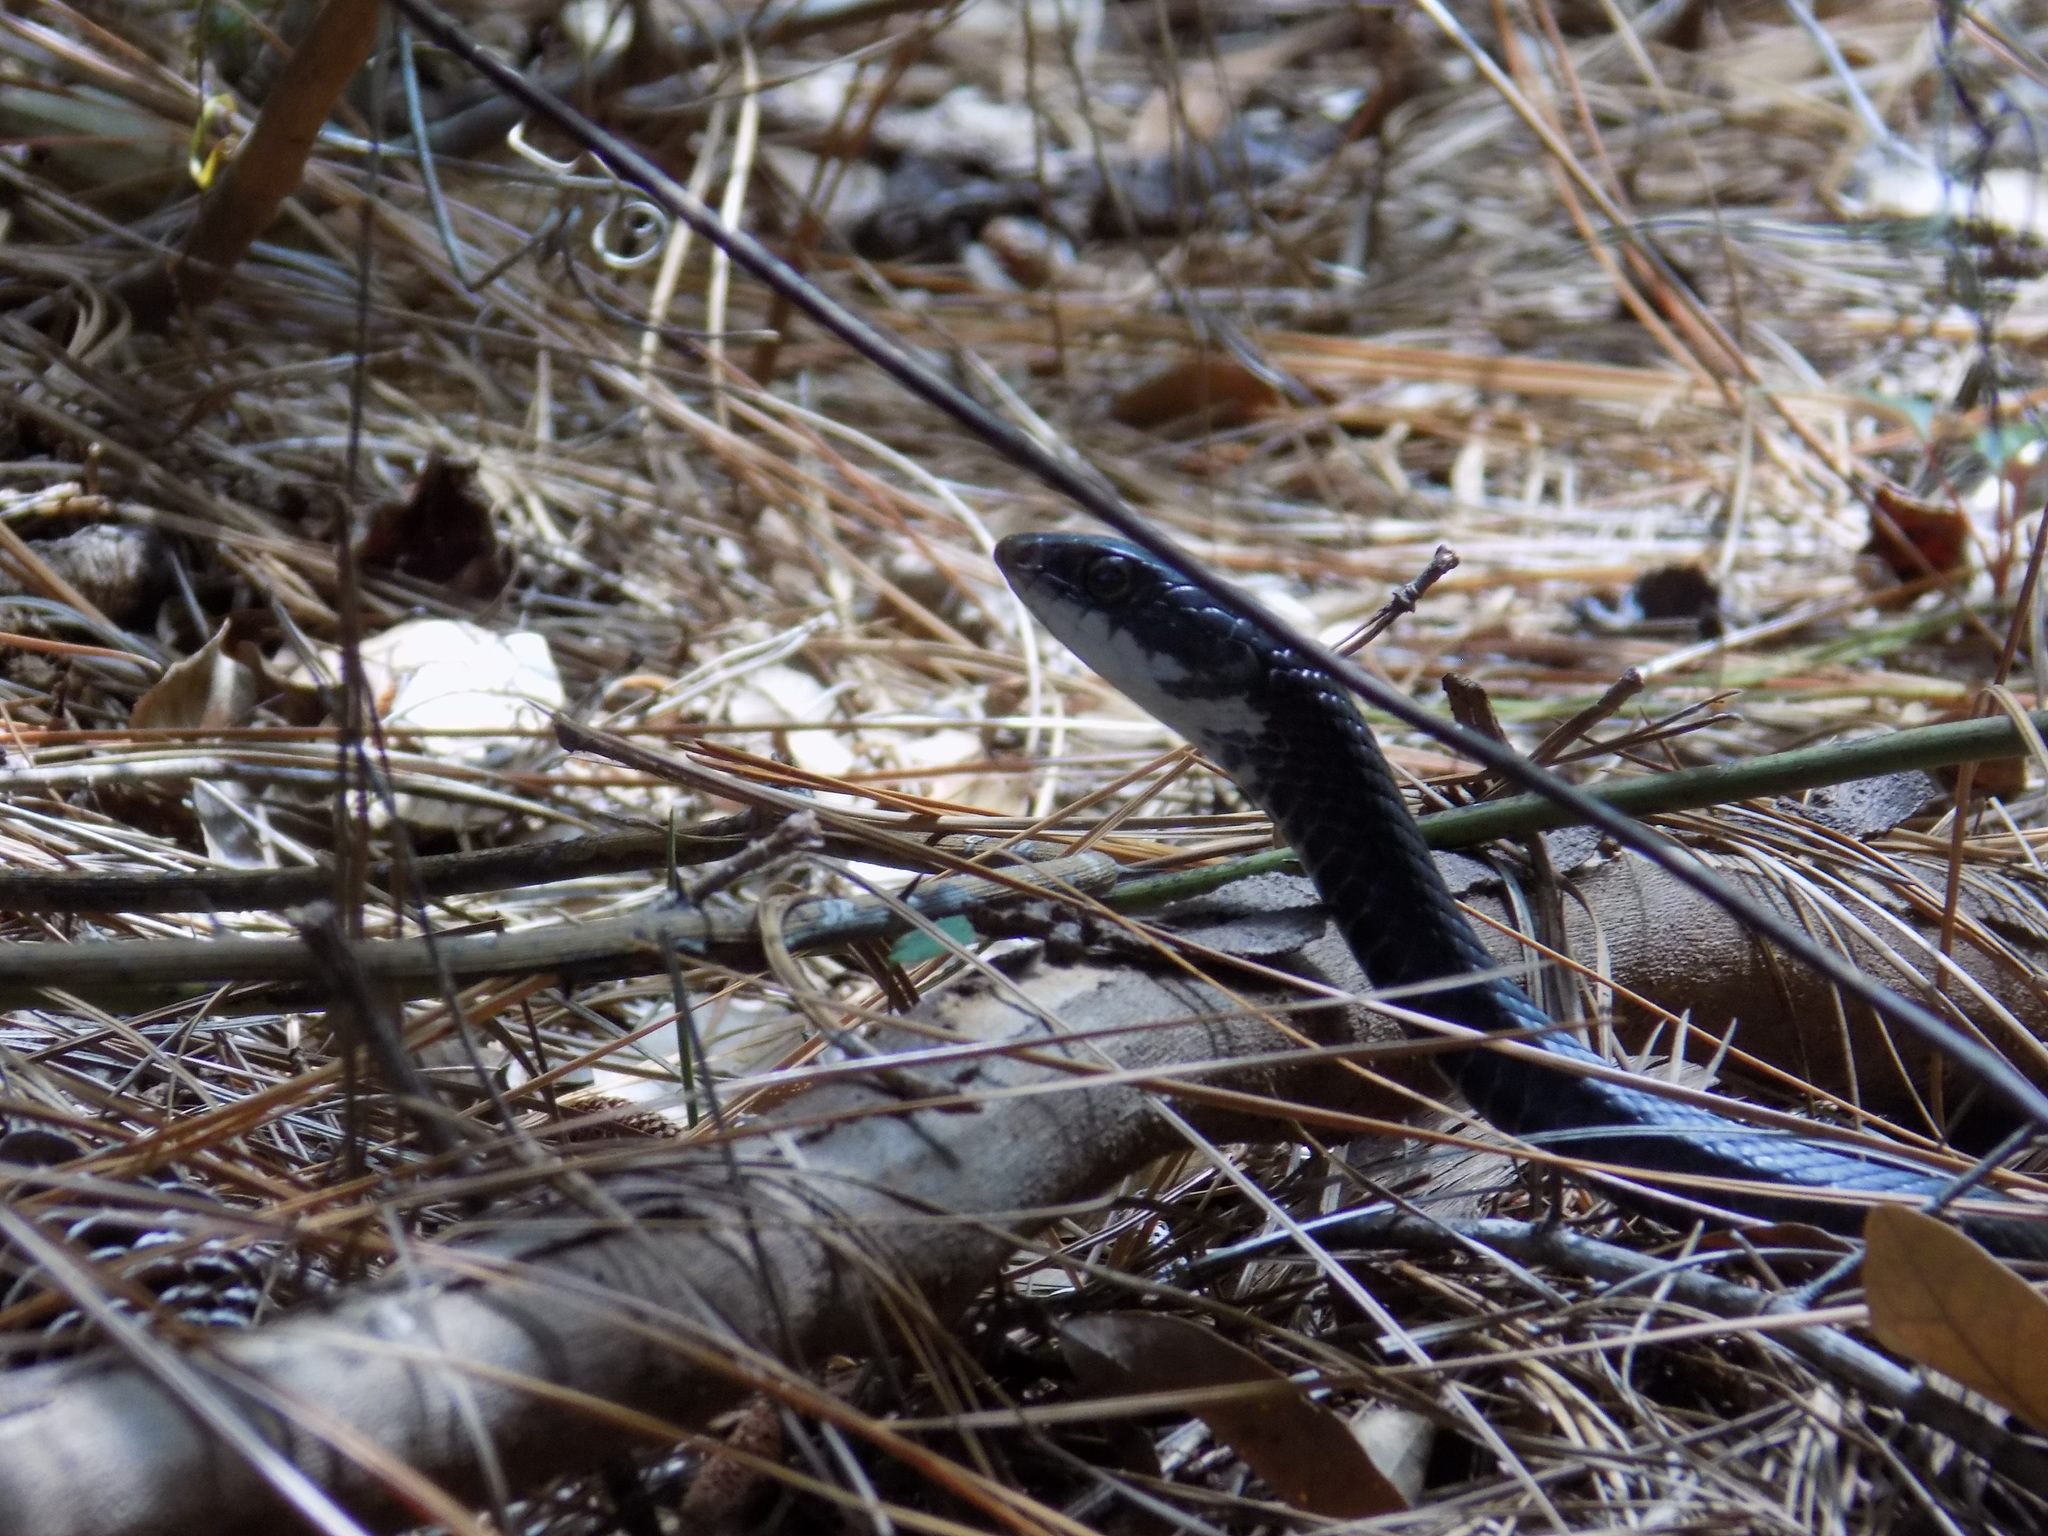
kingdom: Animalia
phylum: Chordata
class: Squamata
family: Colubridae
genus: Coluber
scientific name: Coluber constrictor
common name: Eastern racer
